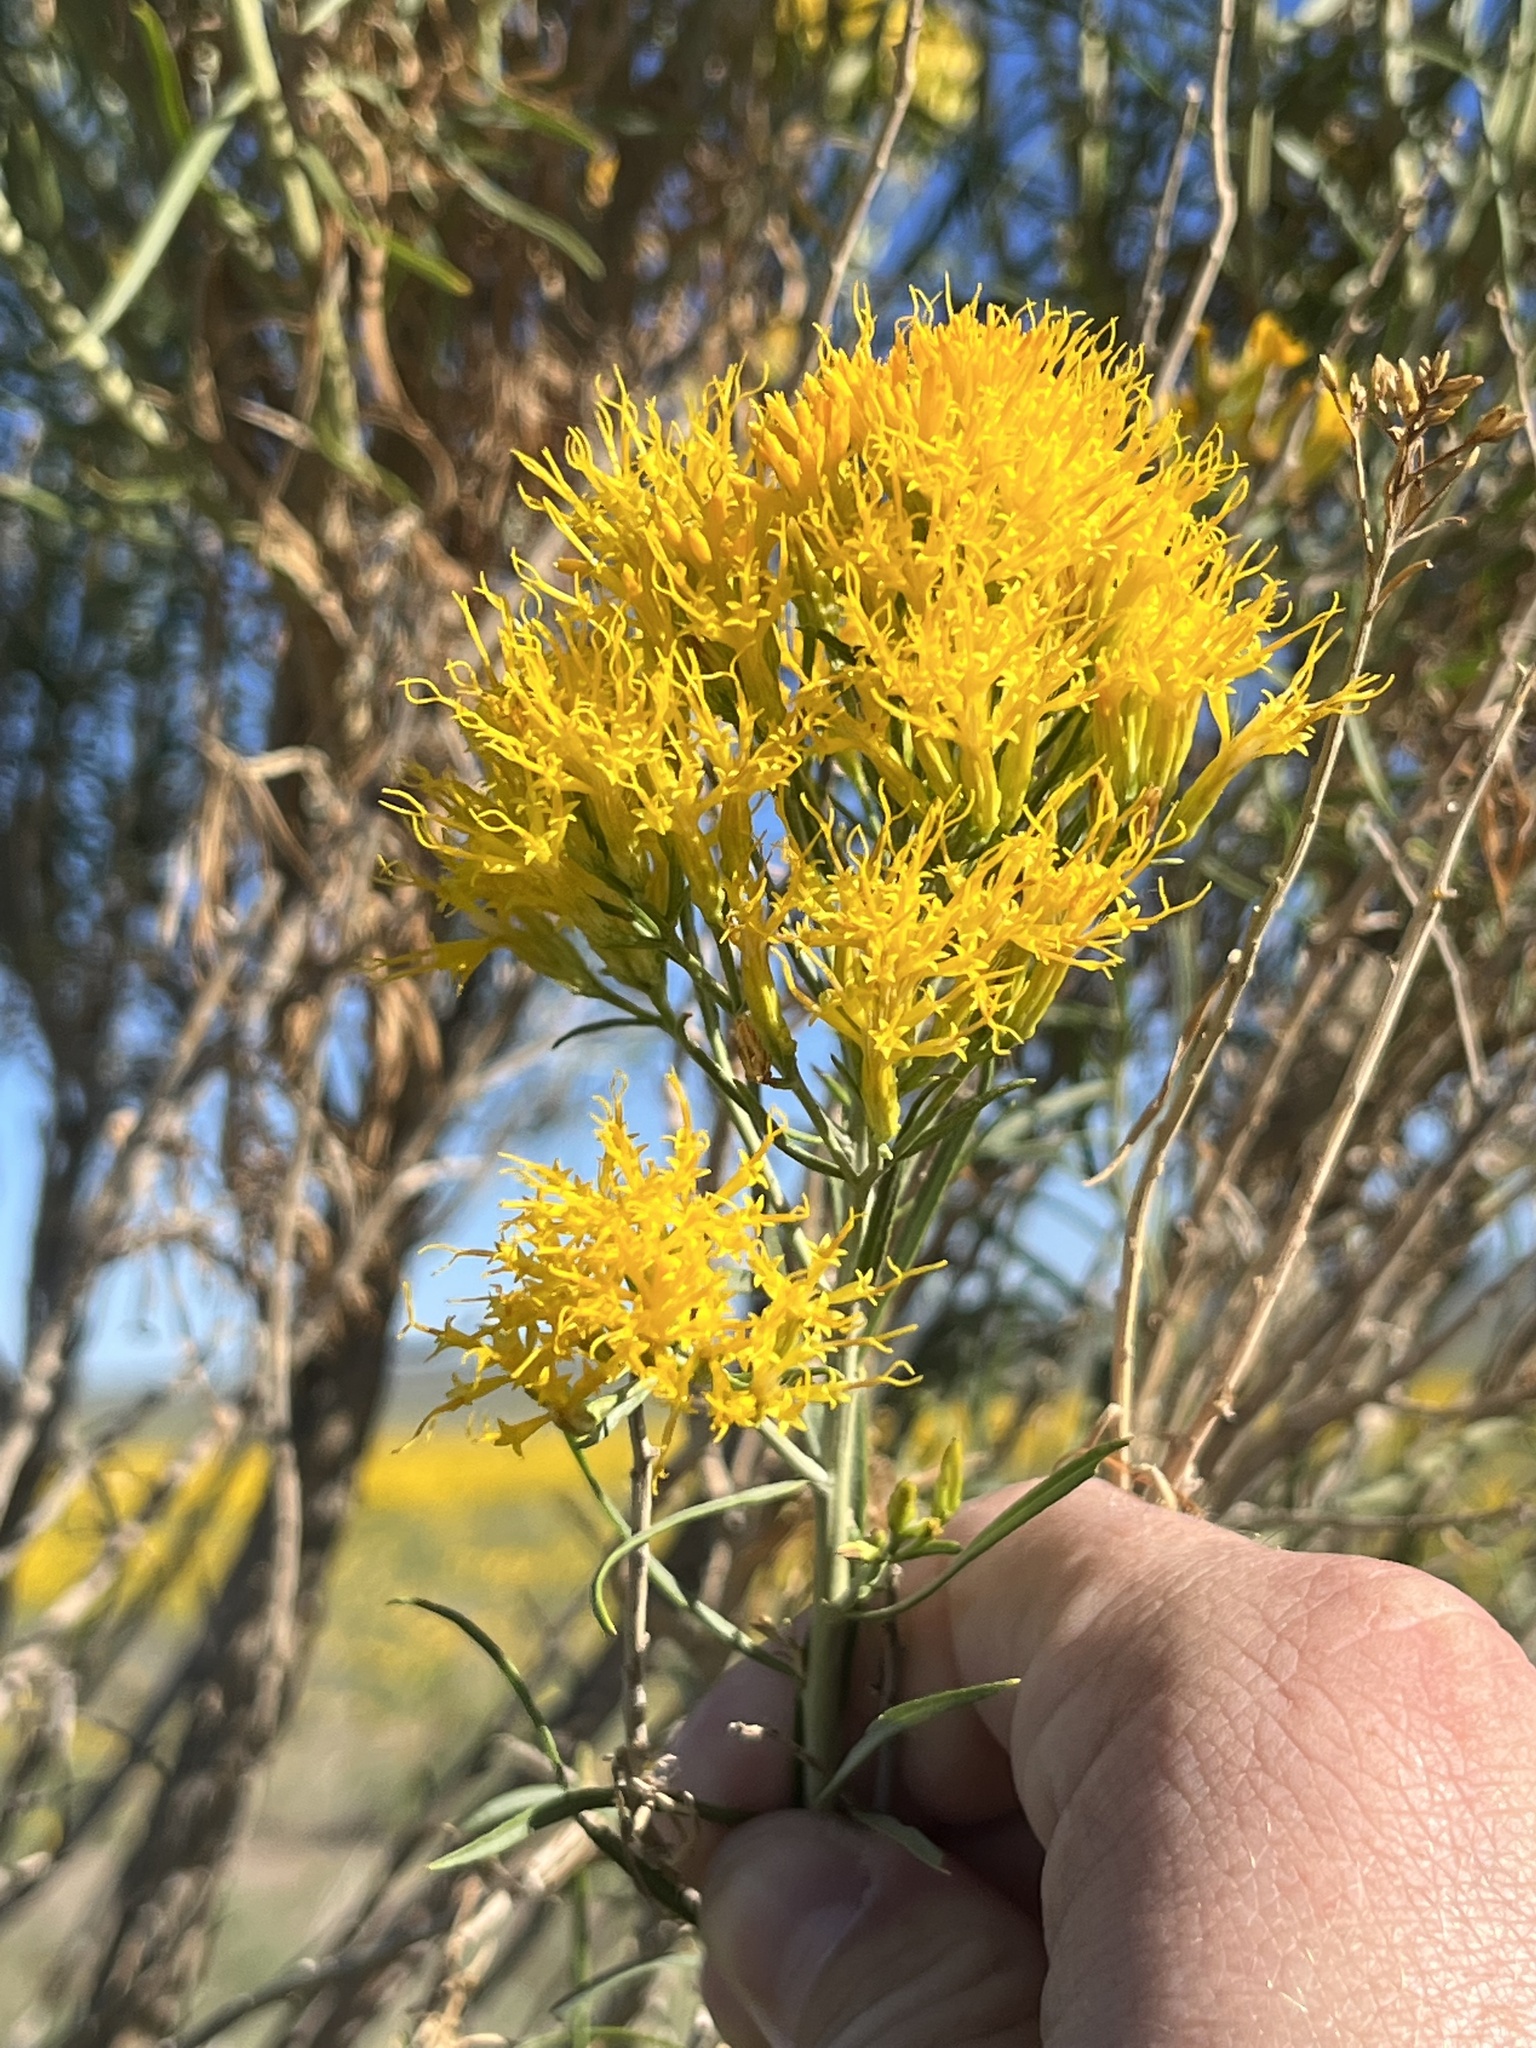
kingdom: Plantae
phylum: Tracheophyta
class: Magnoliopsida
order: Asterales
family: Asteraceae
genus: Ericameria
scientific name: Ericameria nauseosa
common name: Rubber rabbitbrush
